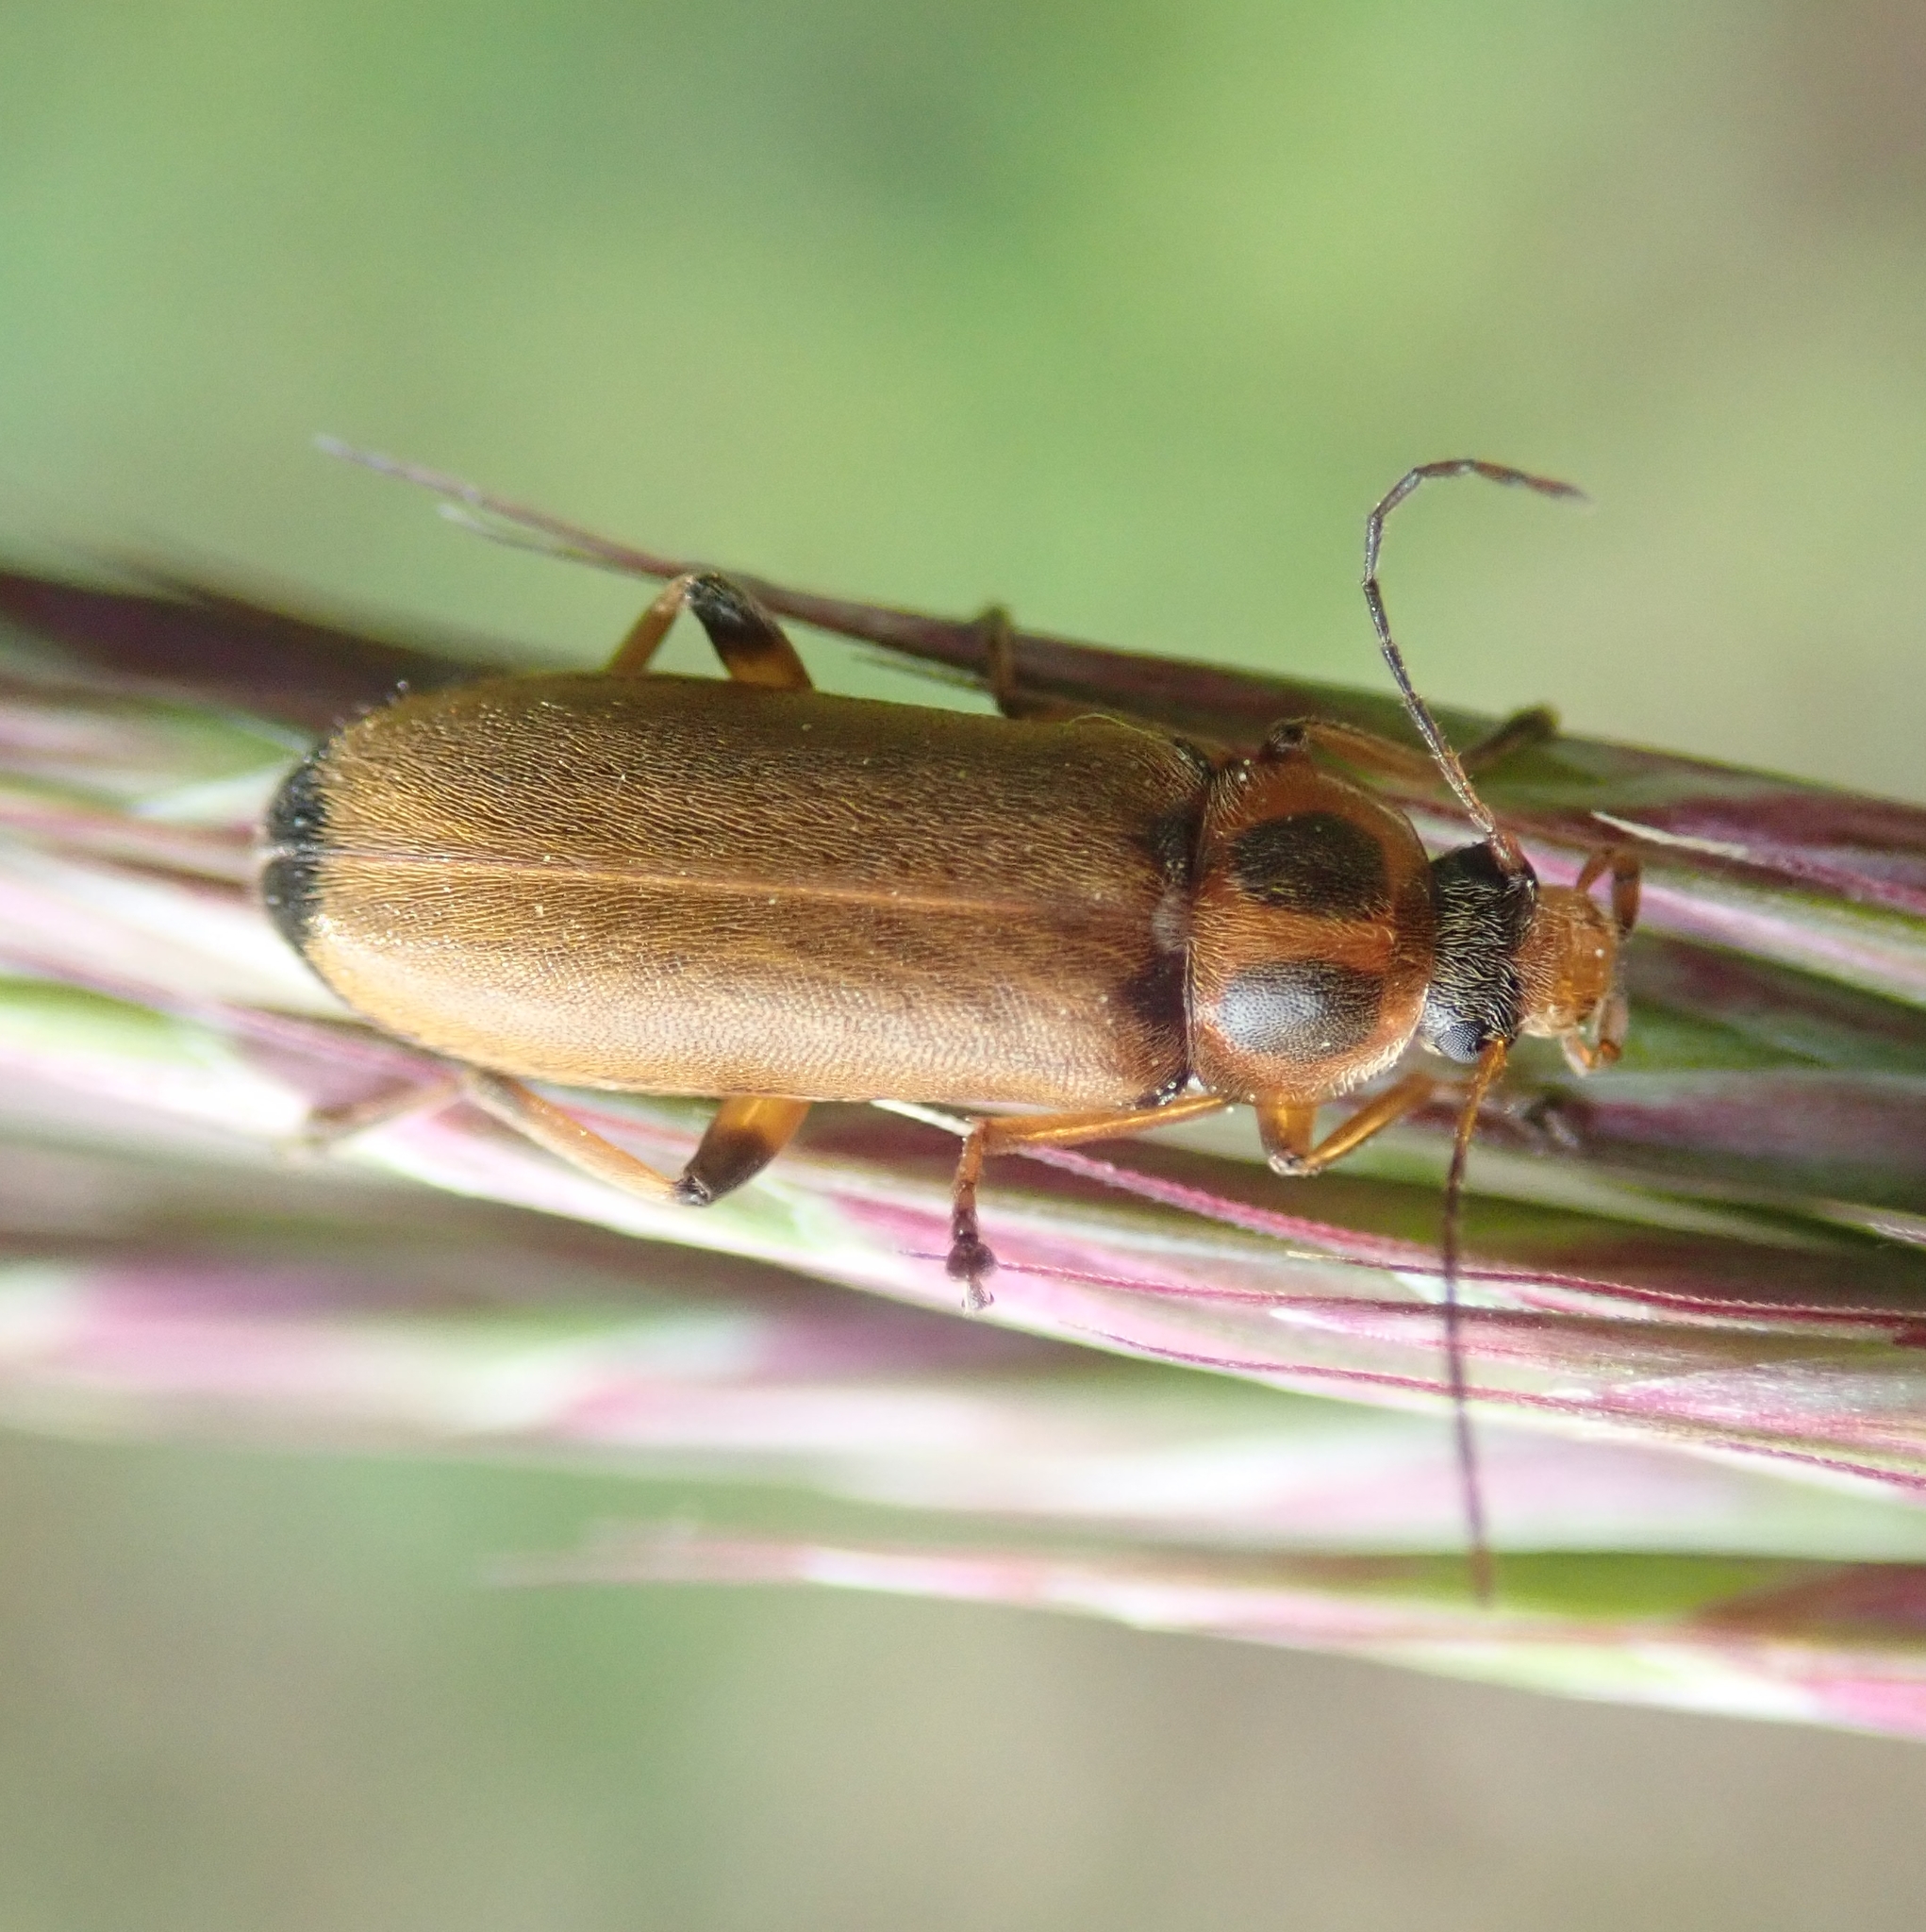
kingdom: Animalia
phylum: Arthropoda
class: Insecta
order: Coleoptera
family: Melandryidae
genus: Osphya
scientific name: Osphya bipunctata
